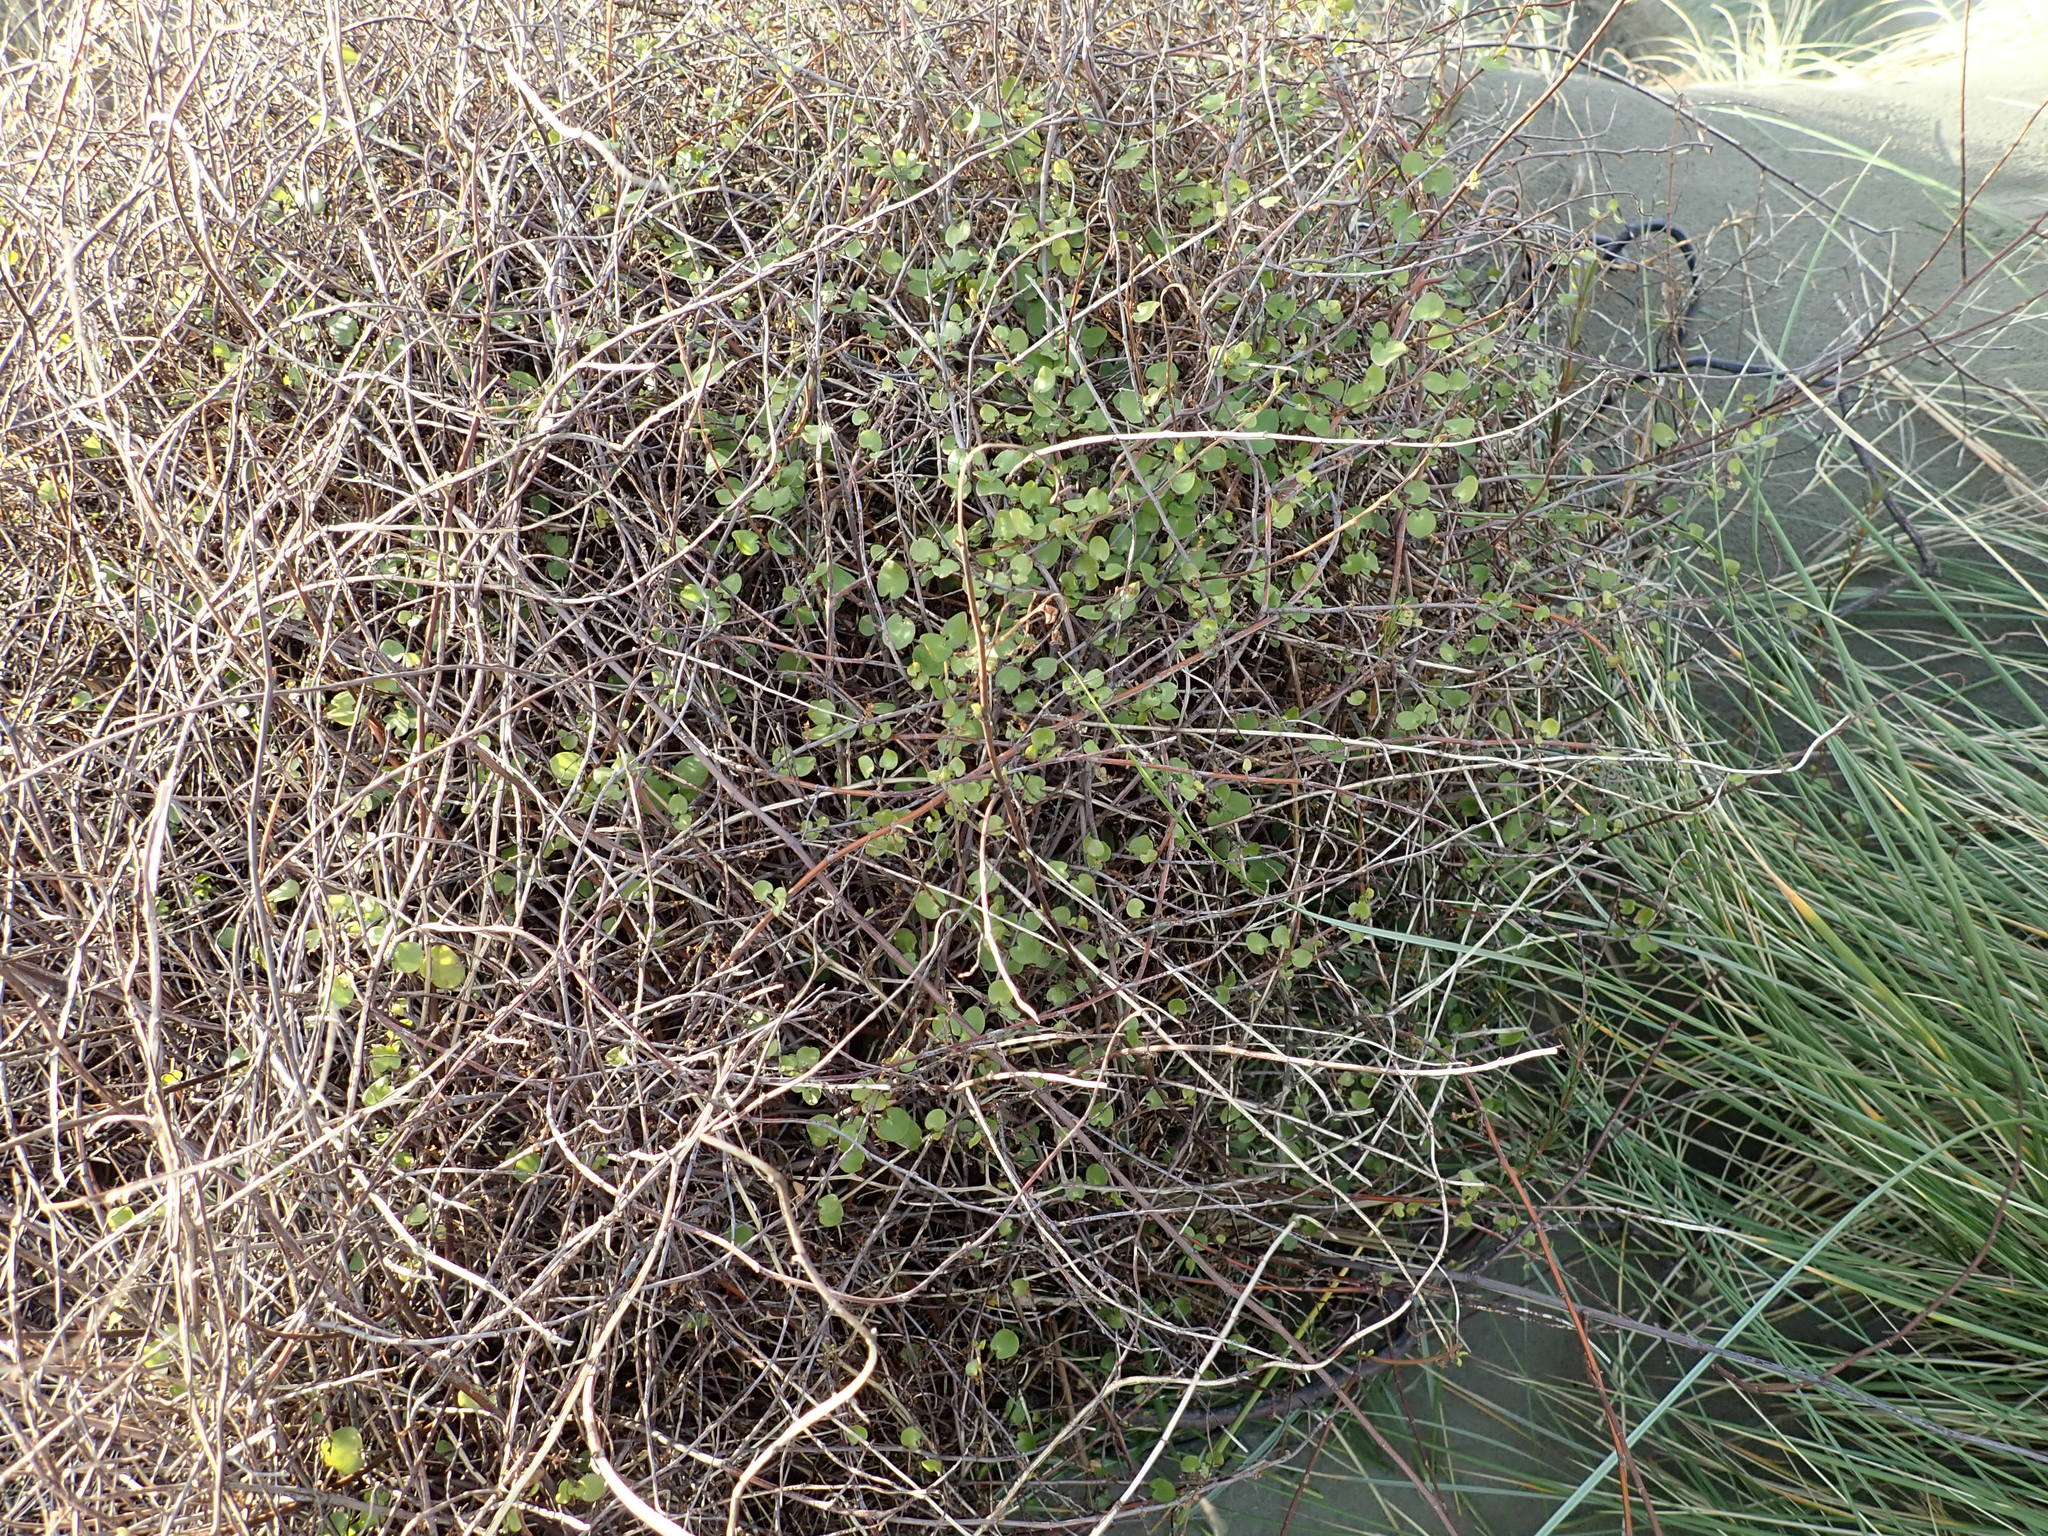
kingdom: Plantae
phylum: Tracheophyta
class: Magnoliopsida
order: Caryophyllales
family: Polygonaceae
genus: Muehlenbeckia
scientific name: Muehlenbeckia complexa
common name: Wireplant
